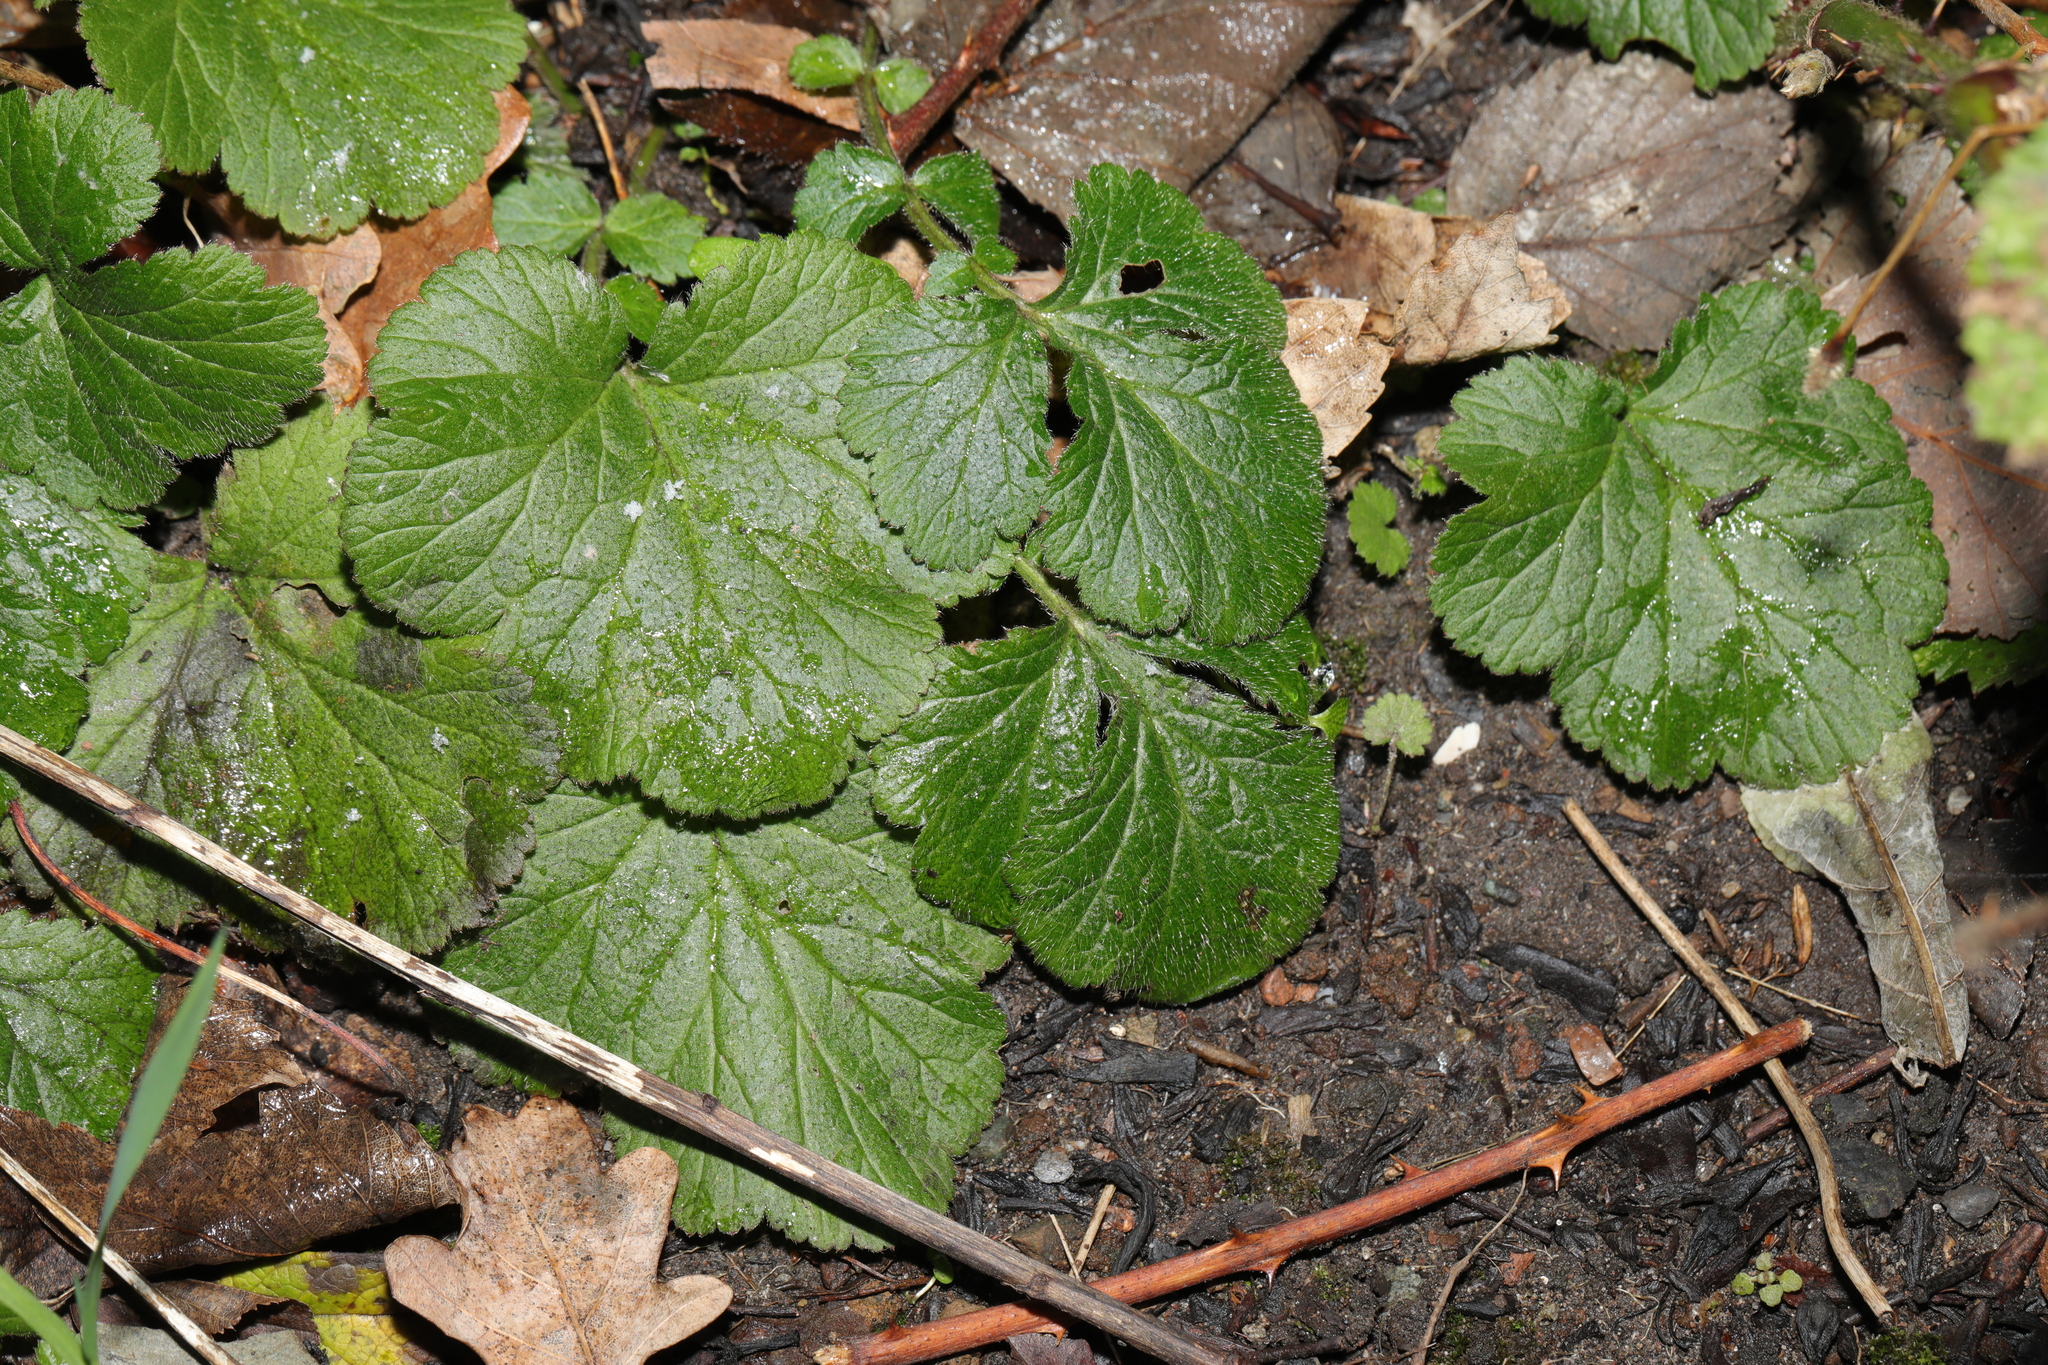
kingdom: Plantae
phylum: Tracheophyta
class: Magnoliopsida
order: Rosales
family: Rosaceae
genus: Geum
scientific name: Geum urbanum
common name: Wood avens
